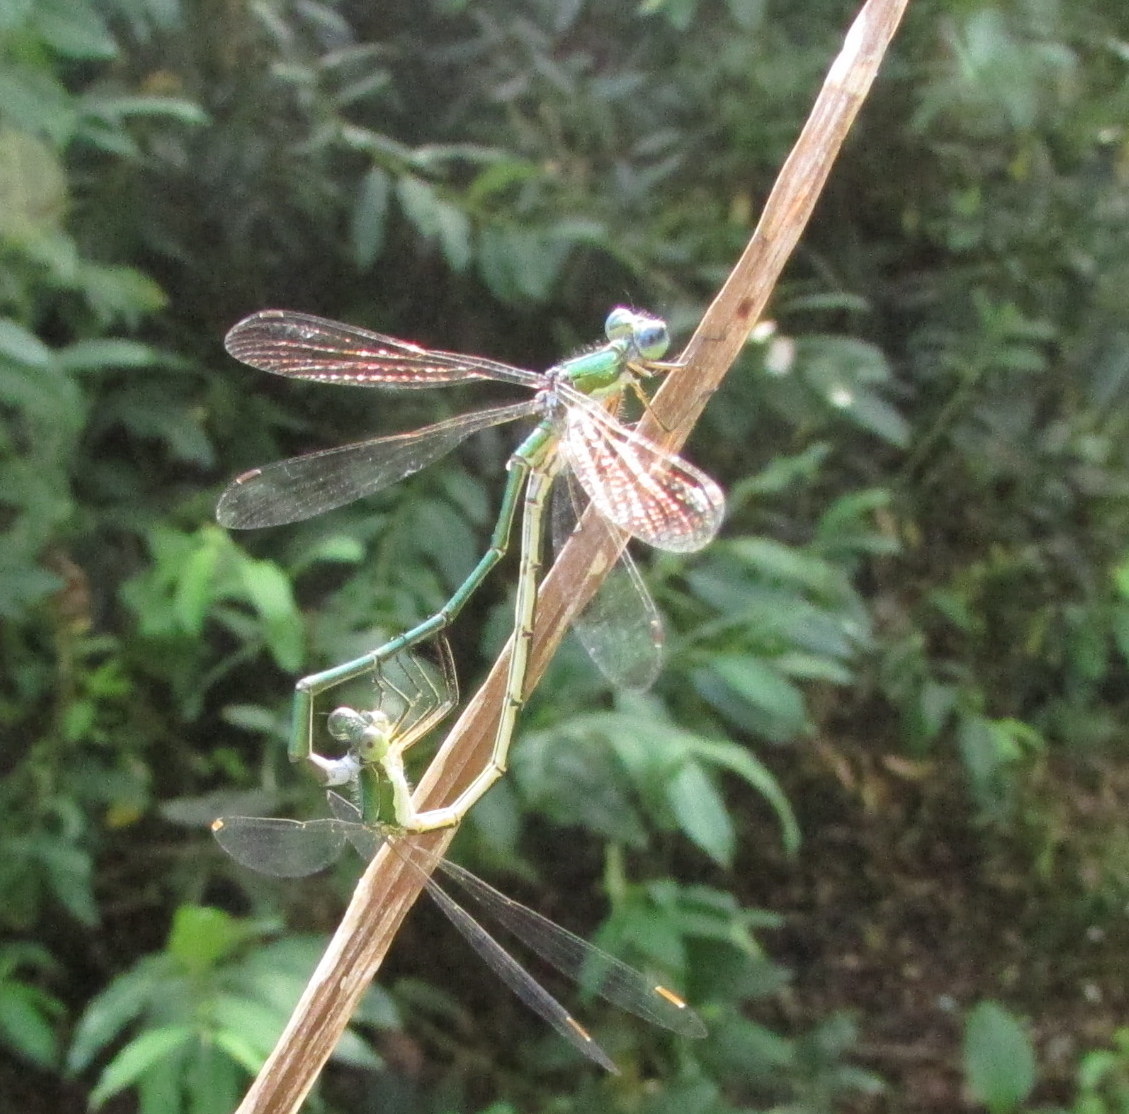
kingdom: Animalia
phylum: Arthropoda
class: Insecta
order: Odonata
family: Lestidae
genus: Lestes
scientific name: Lestes virens
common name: Small emerald spreadwing
